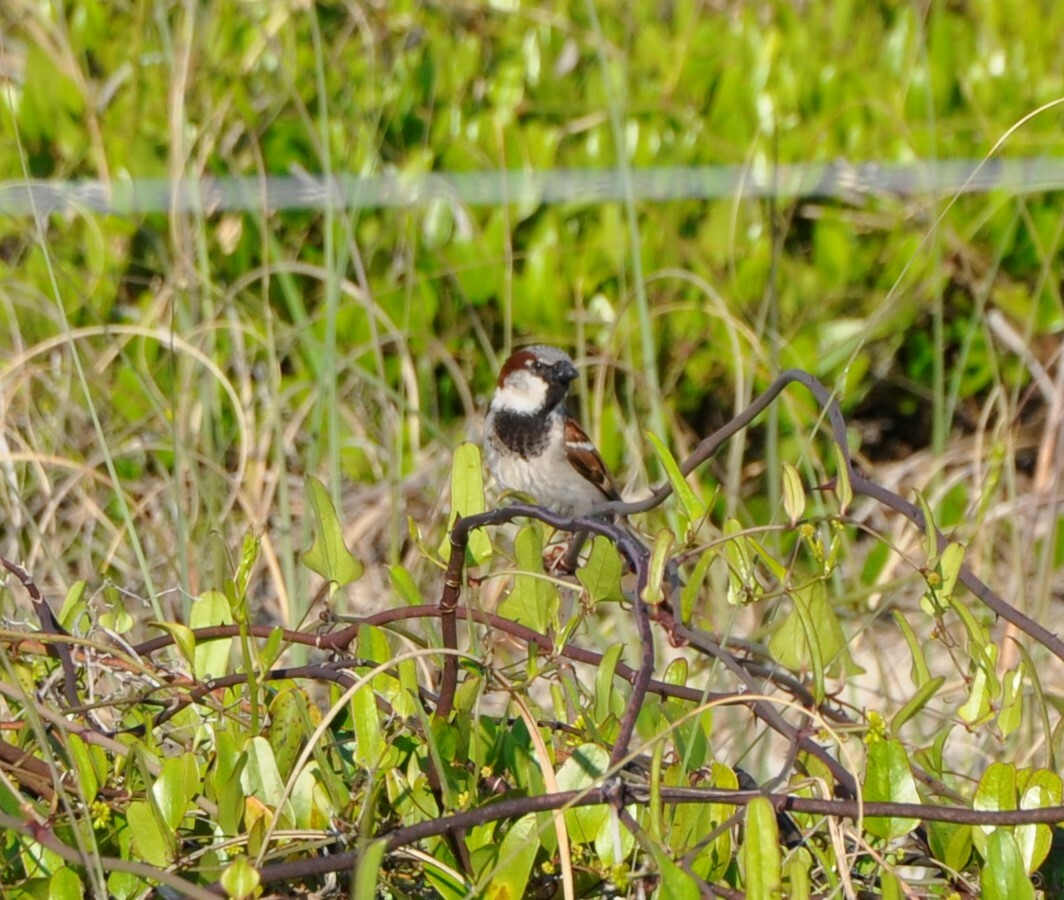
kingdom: Animalia
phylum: Chordata
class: Aves
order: Passeriformes
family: Passeridae
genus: Passer
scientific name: Passer domesticus
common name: House sparrow
